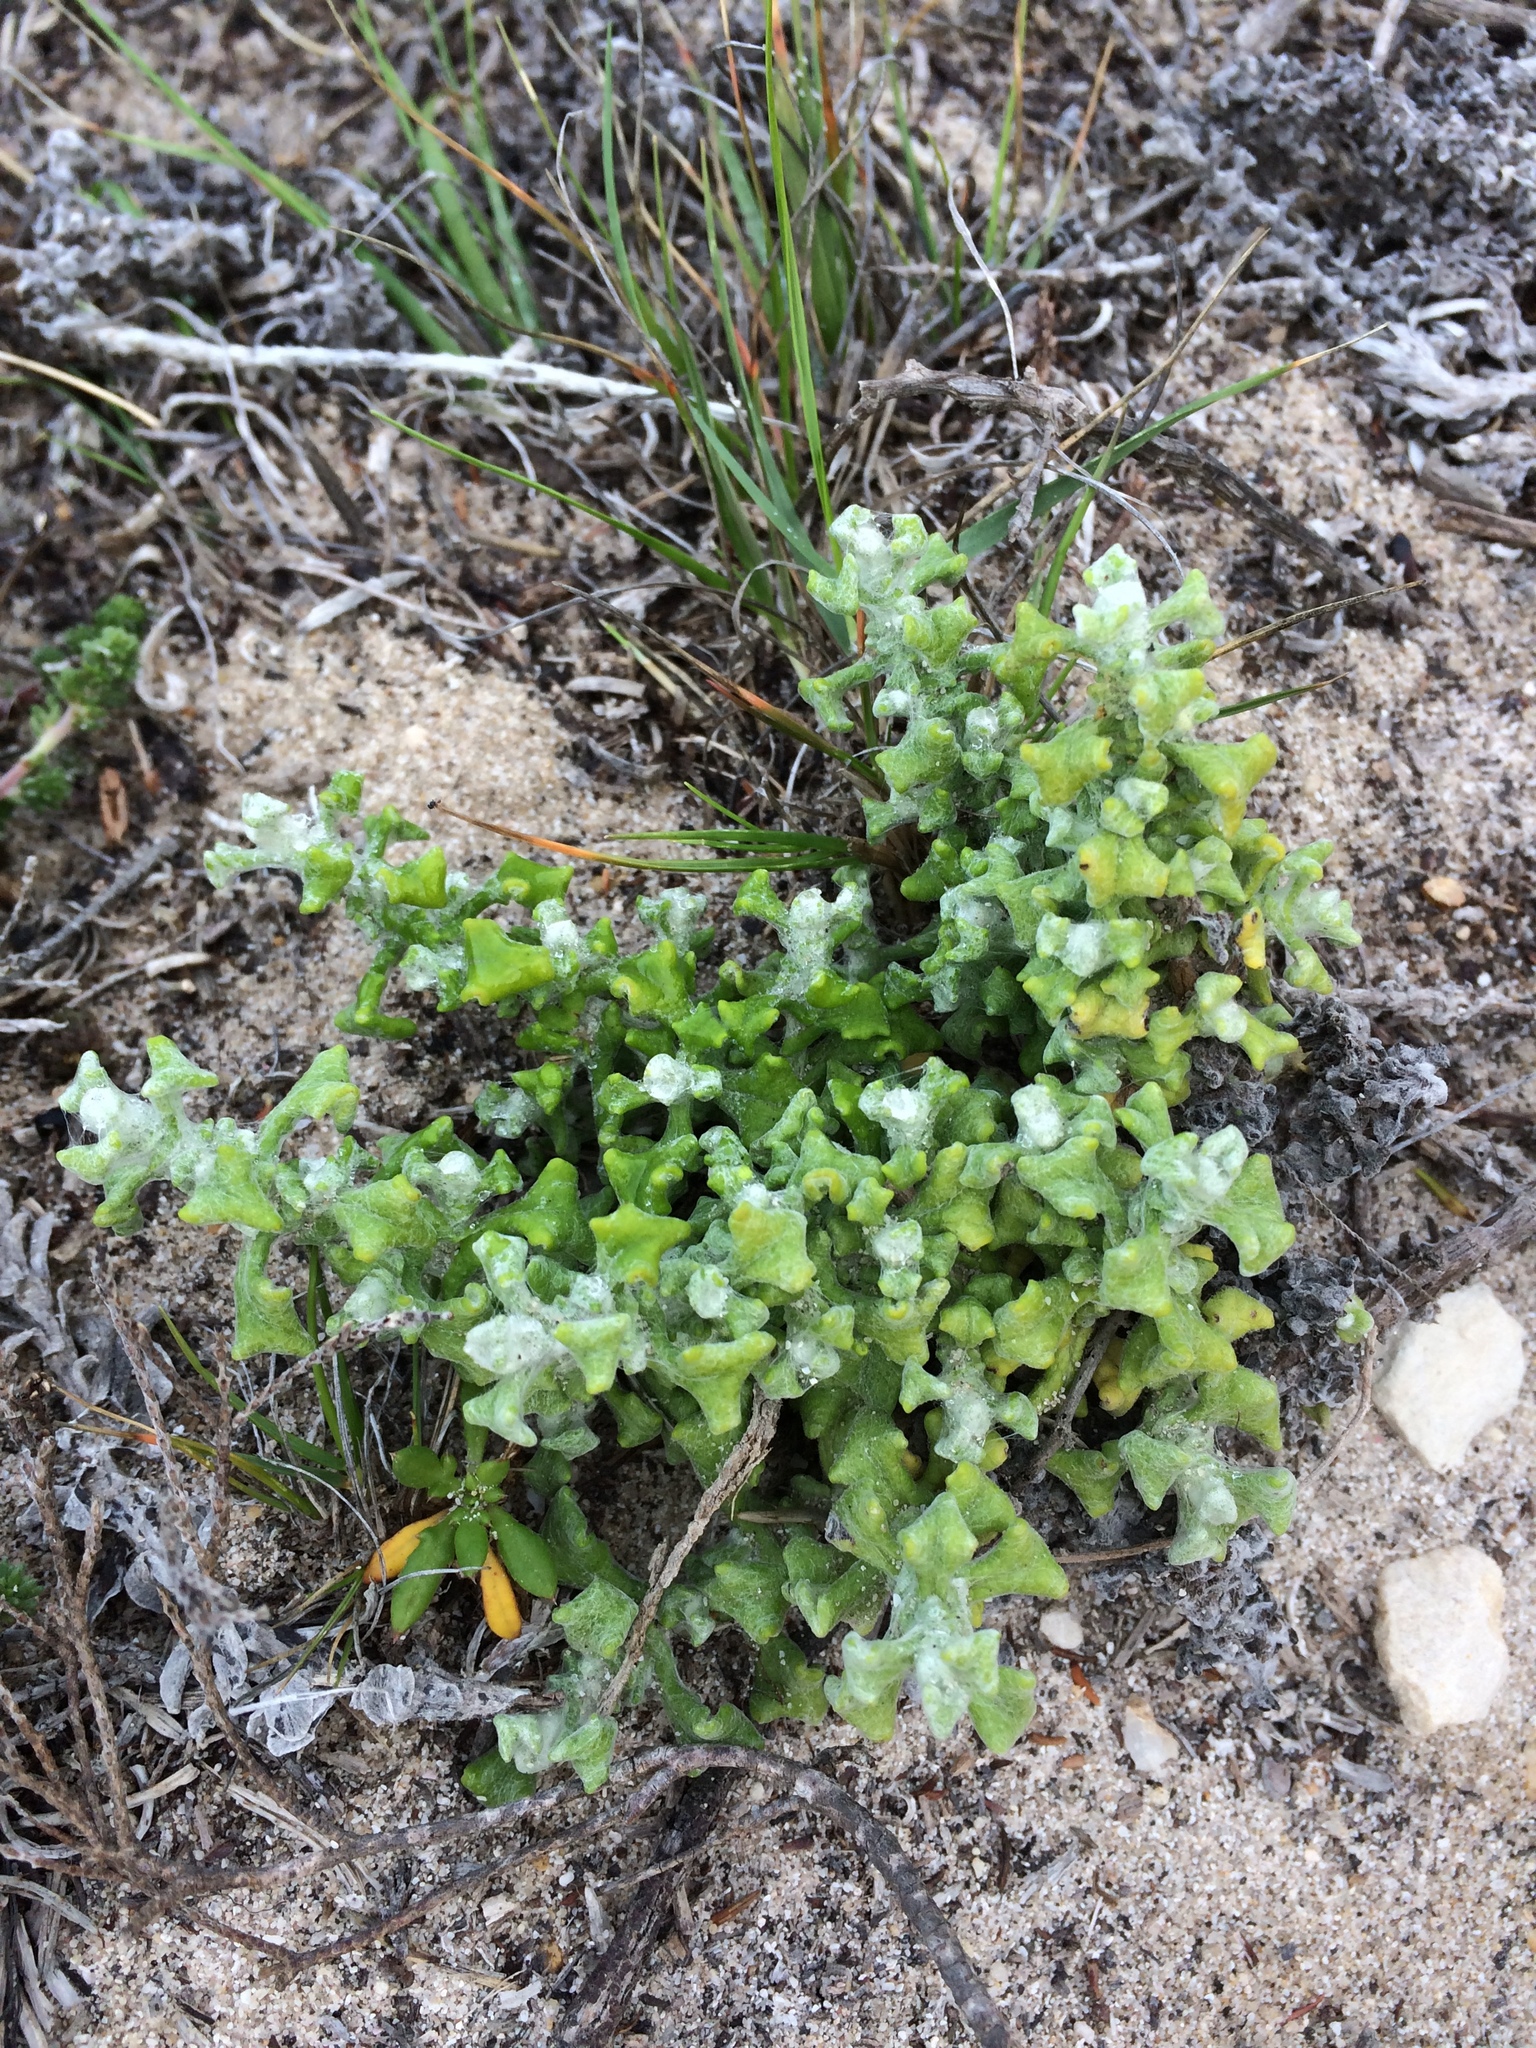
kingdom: Plantae
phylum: Tracheophyta
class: Magnoliopsida
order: Asterales
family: Asteraceae
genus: Helichrysum
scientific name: Helichrysum patulum
